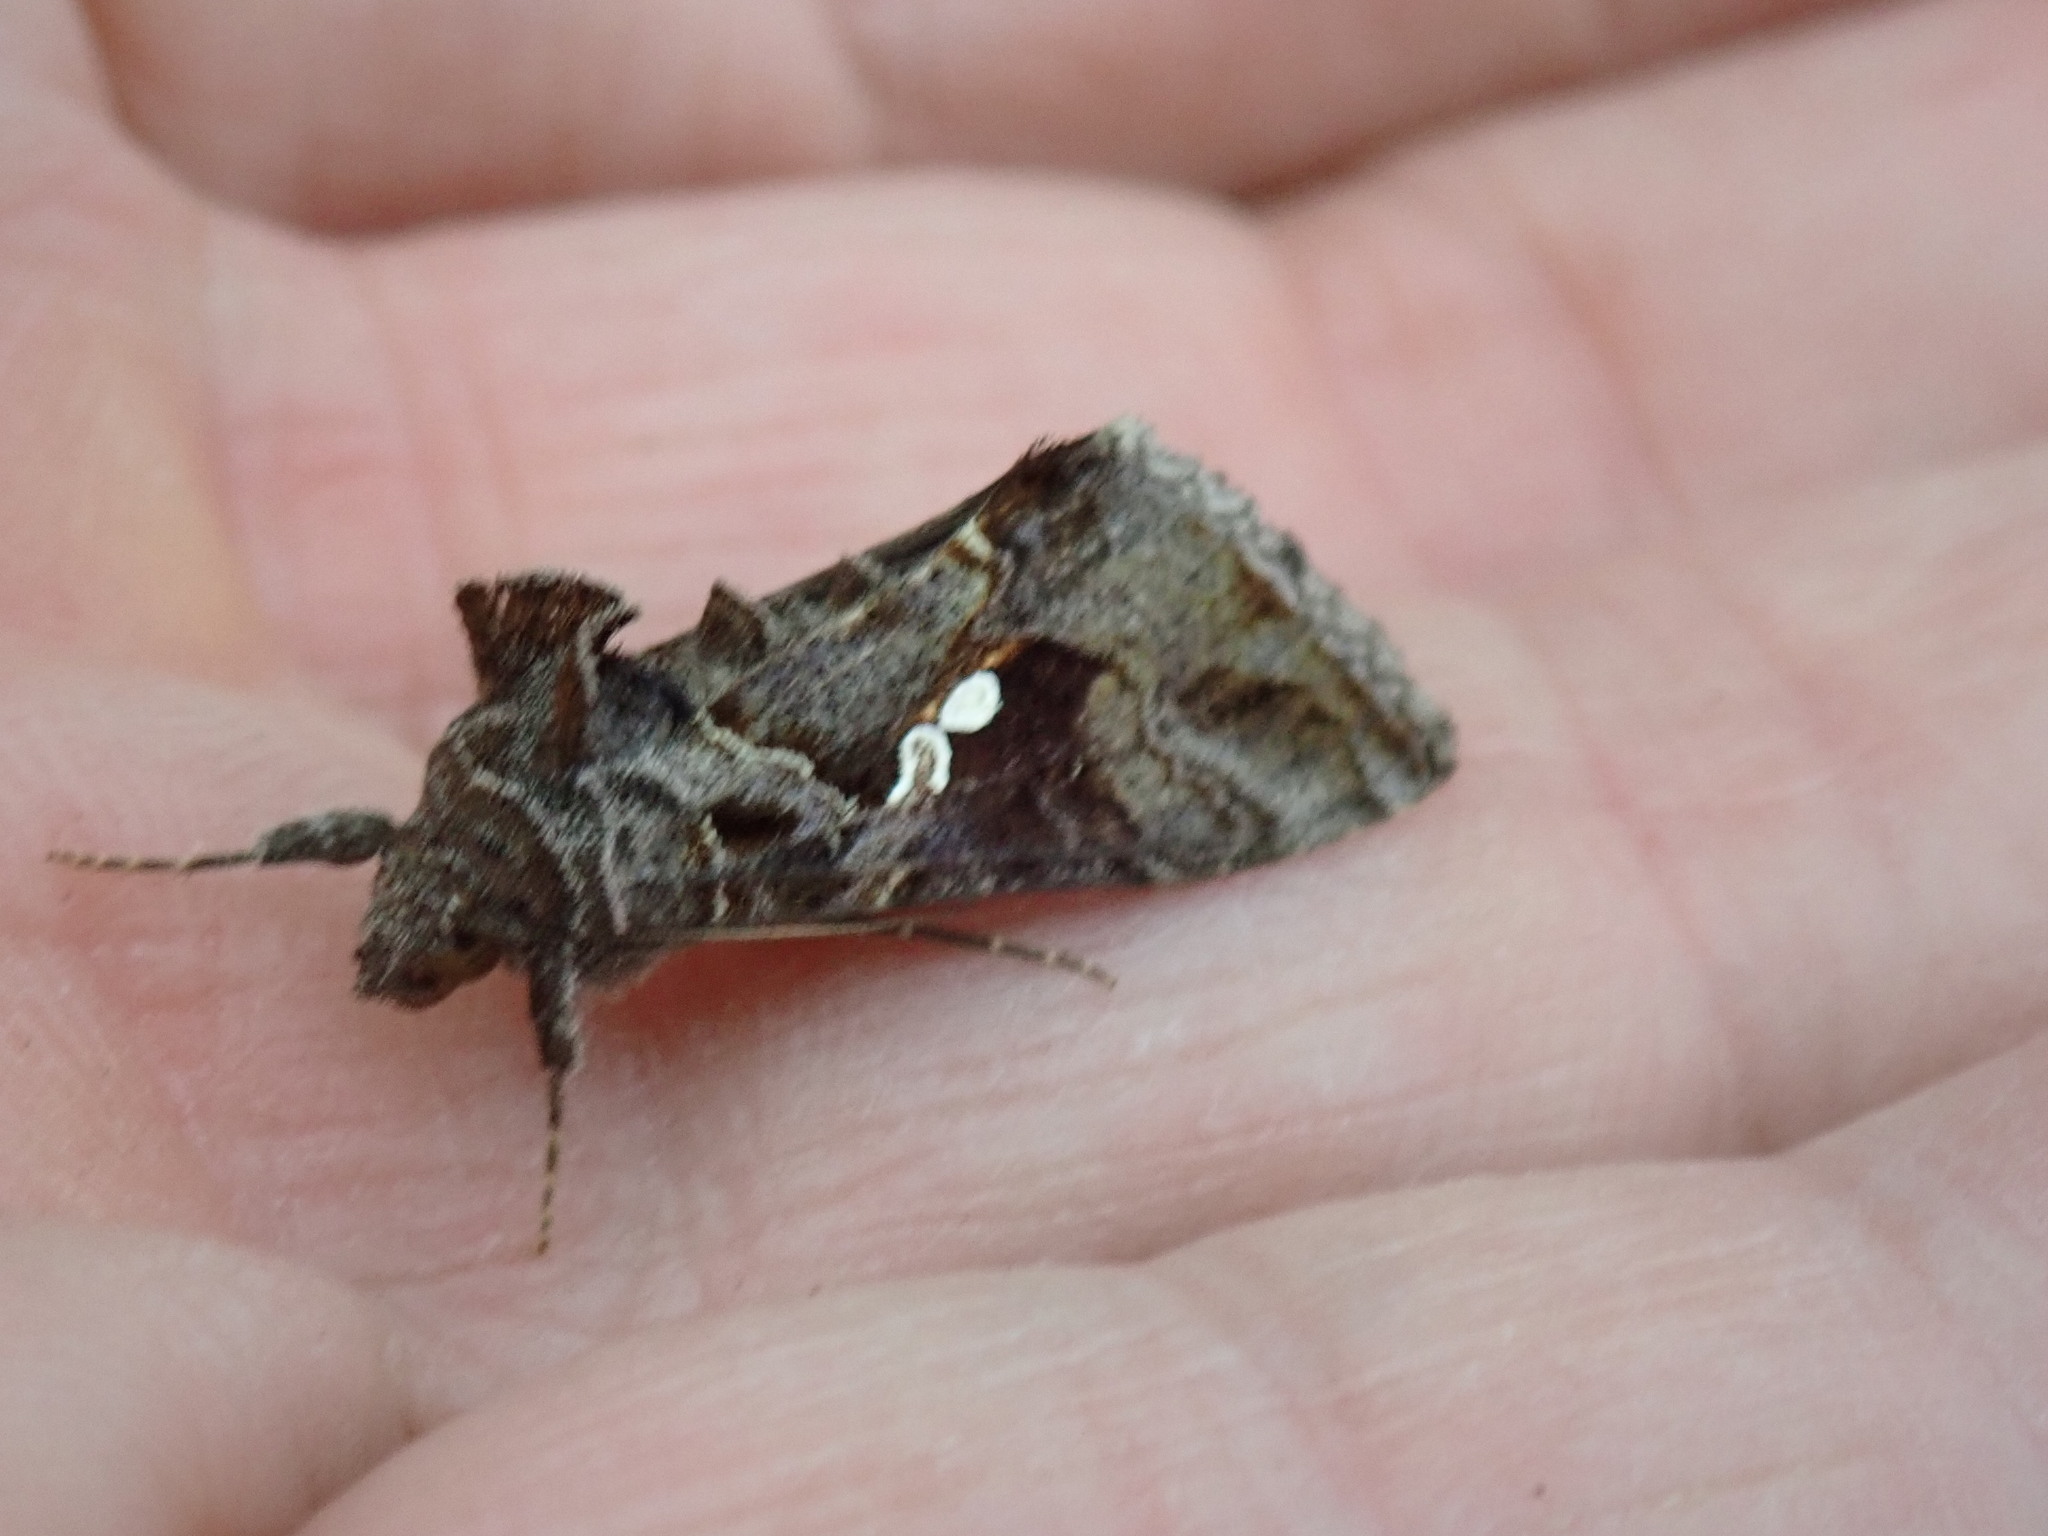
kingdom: Animalia
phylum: Arthropoda
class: Insecta
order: Lepidoptera
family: Noctuidae
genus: Chrysodeixis
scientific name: Chrysodeixis includens
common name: Cutworm moth
